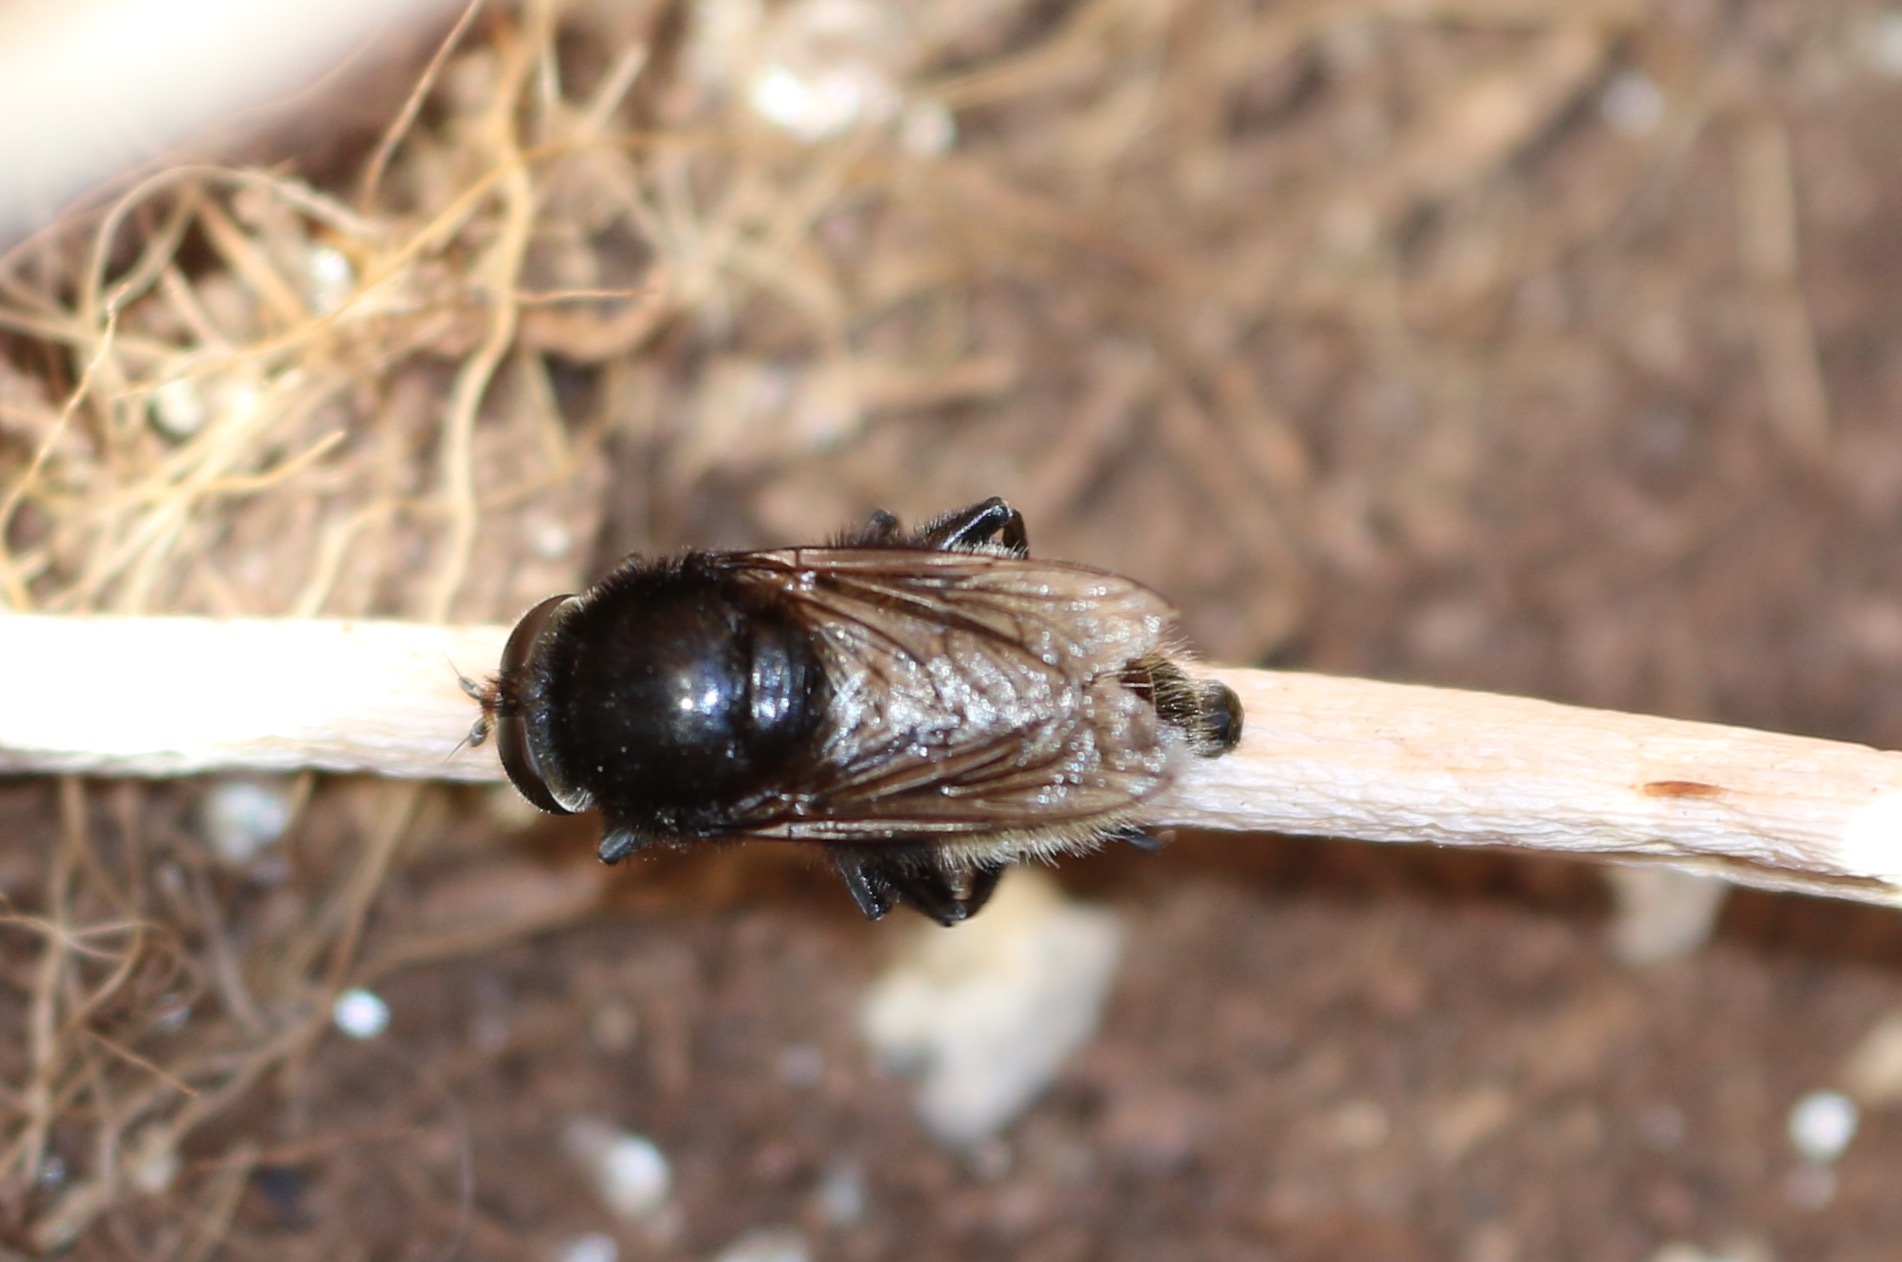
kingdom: Animalia
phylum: Arthropoda
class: Insecta
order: Diptera
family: Syrphidae
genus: Merodon
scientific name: Merodon equestris
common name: Greater bulb-fly
